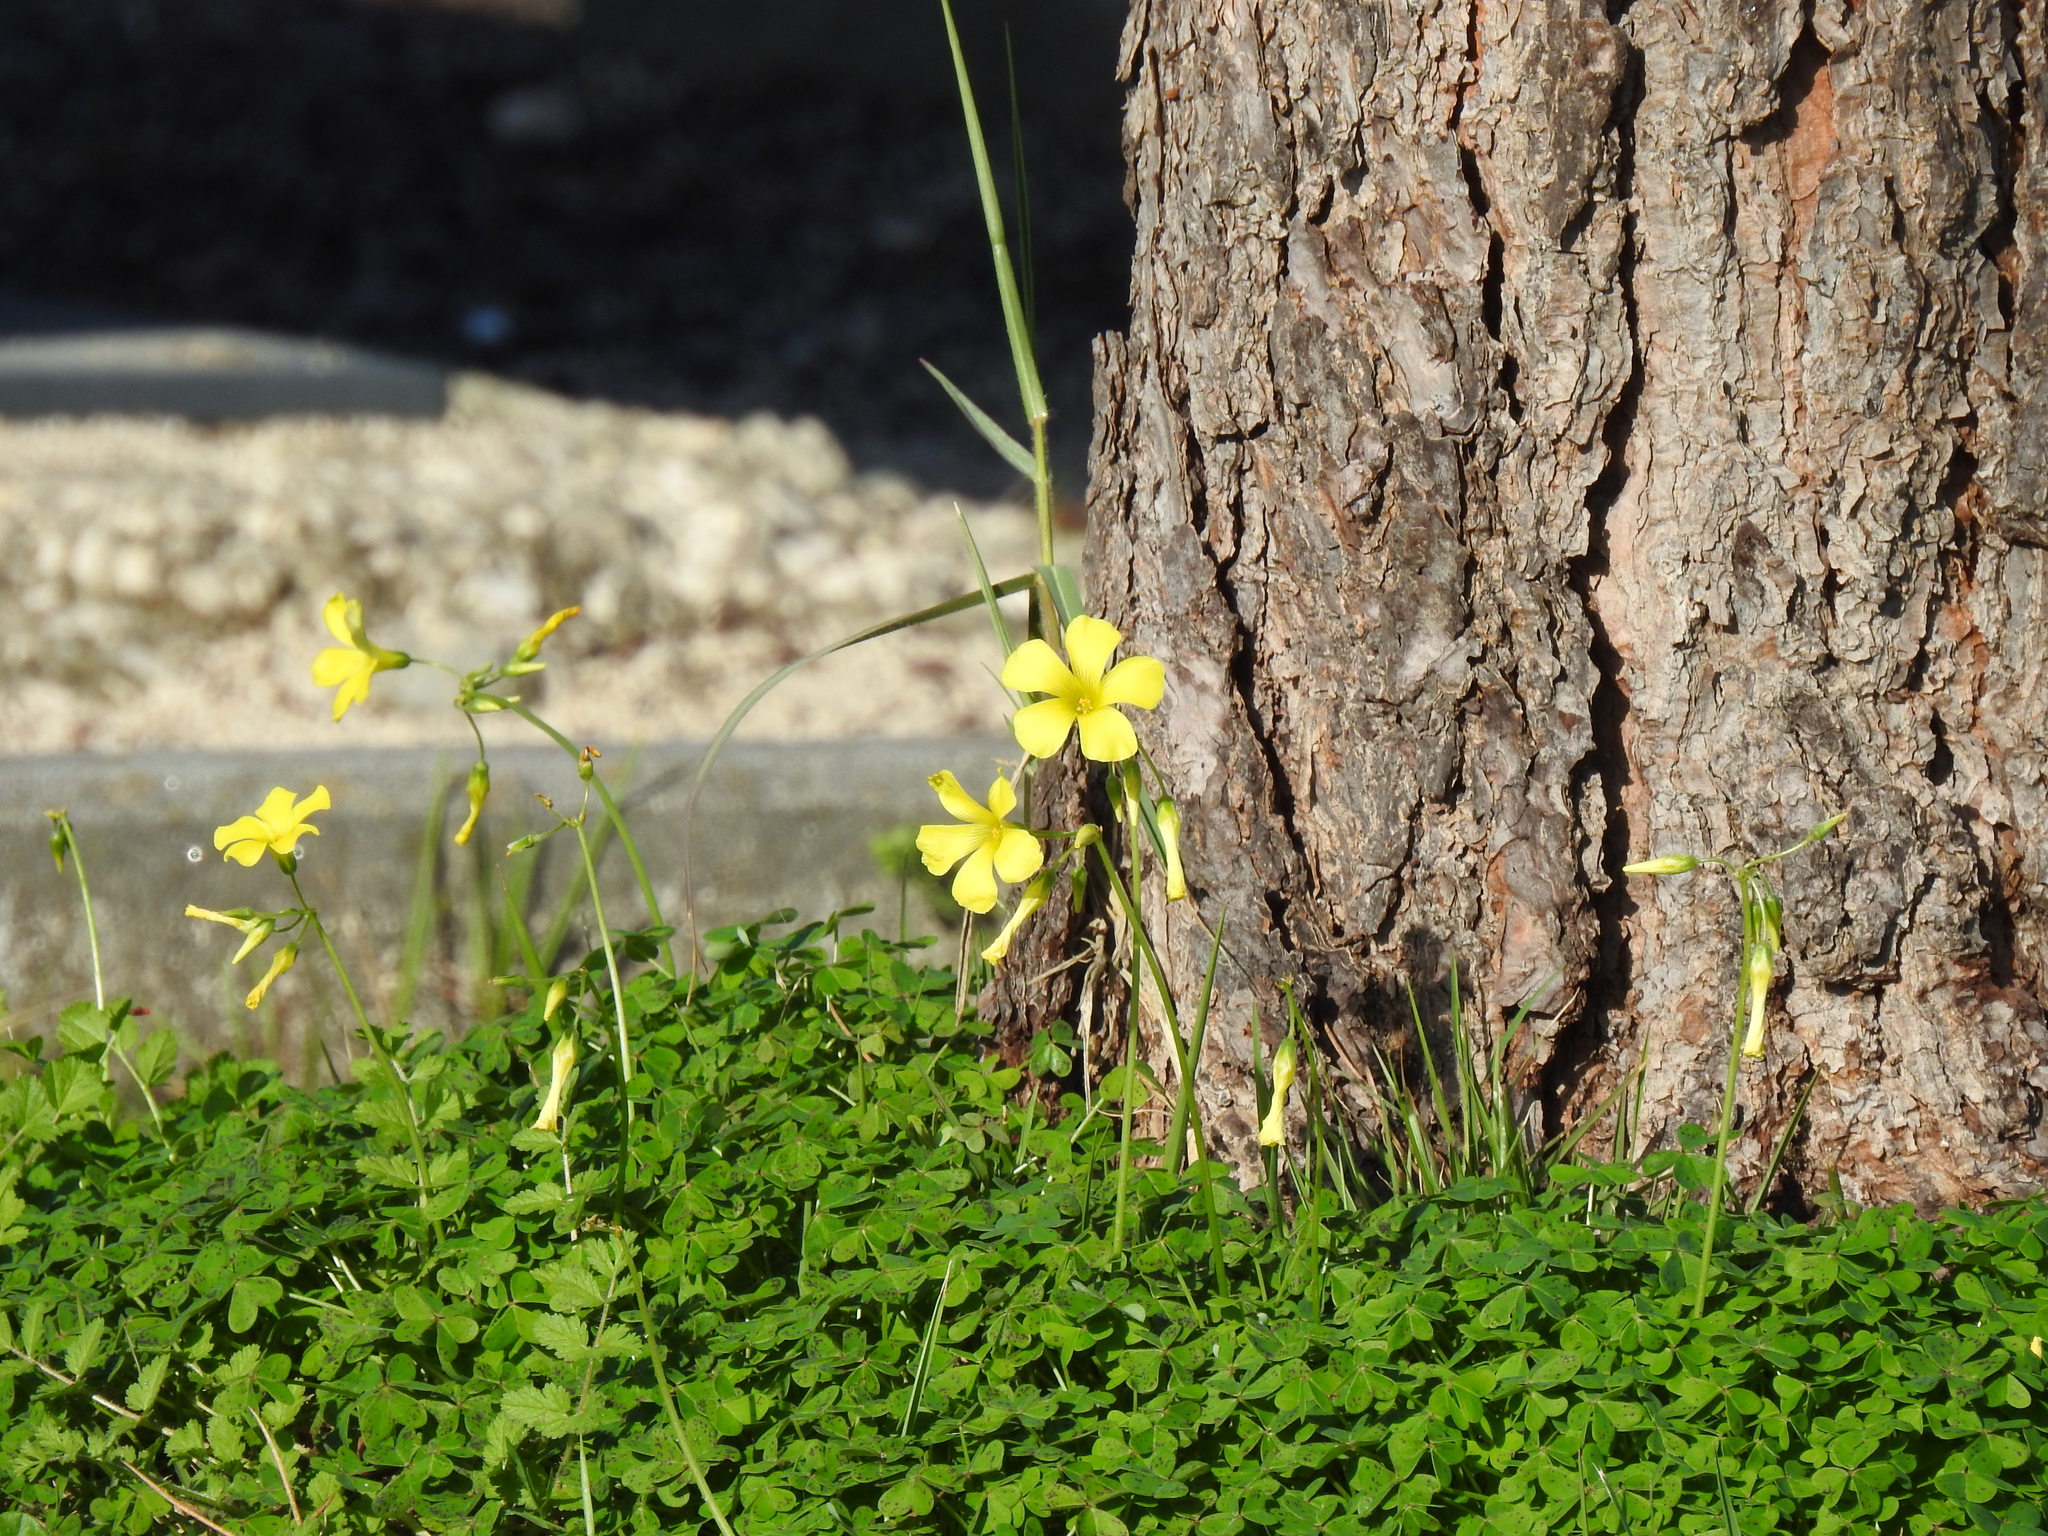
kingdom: Plantae
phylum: Tracheophyta
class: Magnoliopsida
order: Oxalidales
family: Oxalidaceae
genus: Oxalis
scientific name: Oxalis pes-caprae
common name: Bermuda-buttercup
